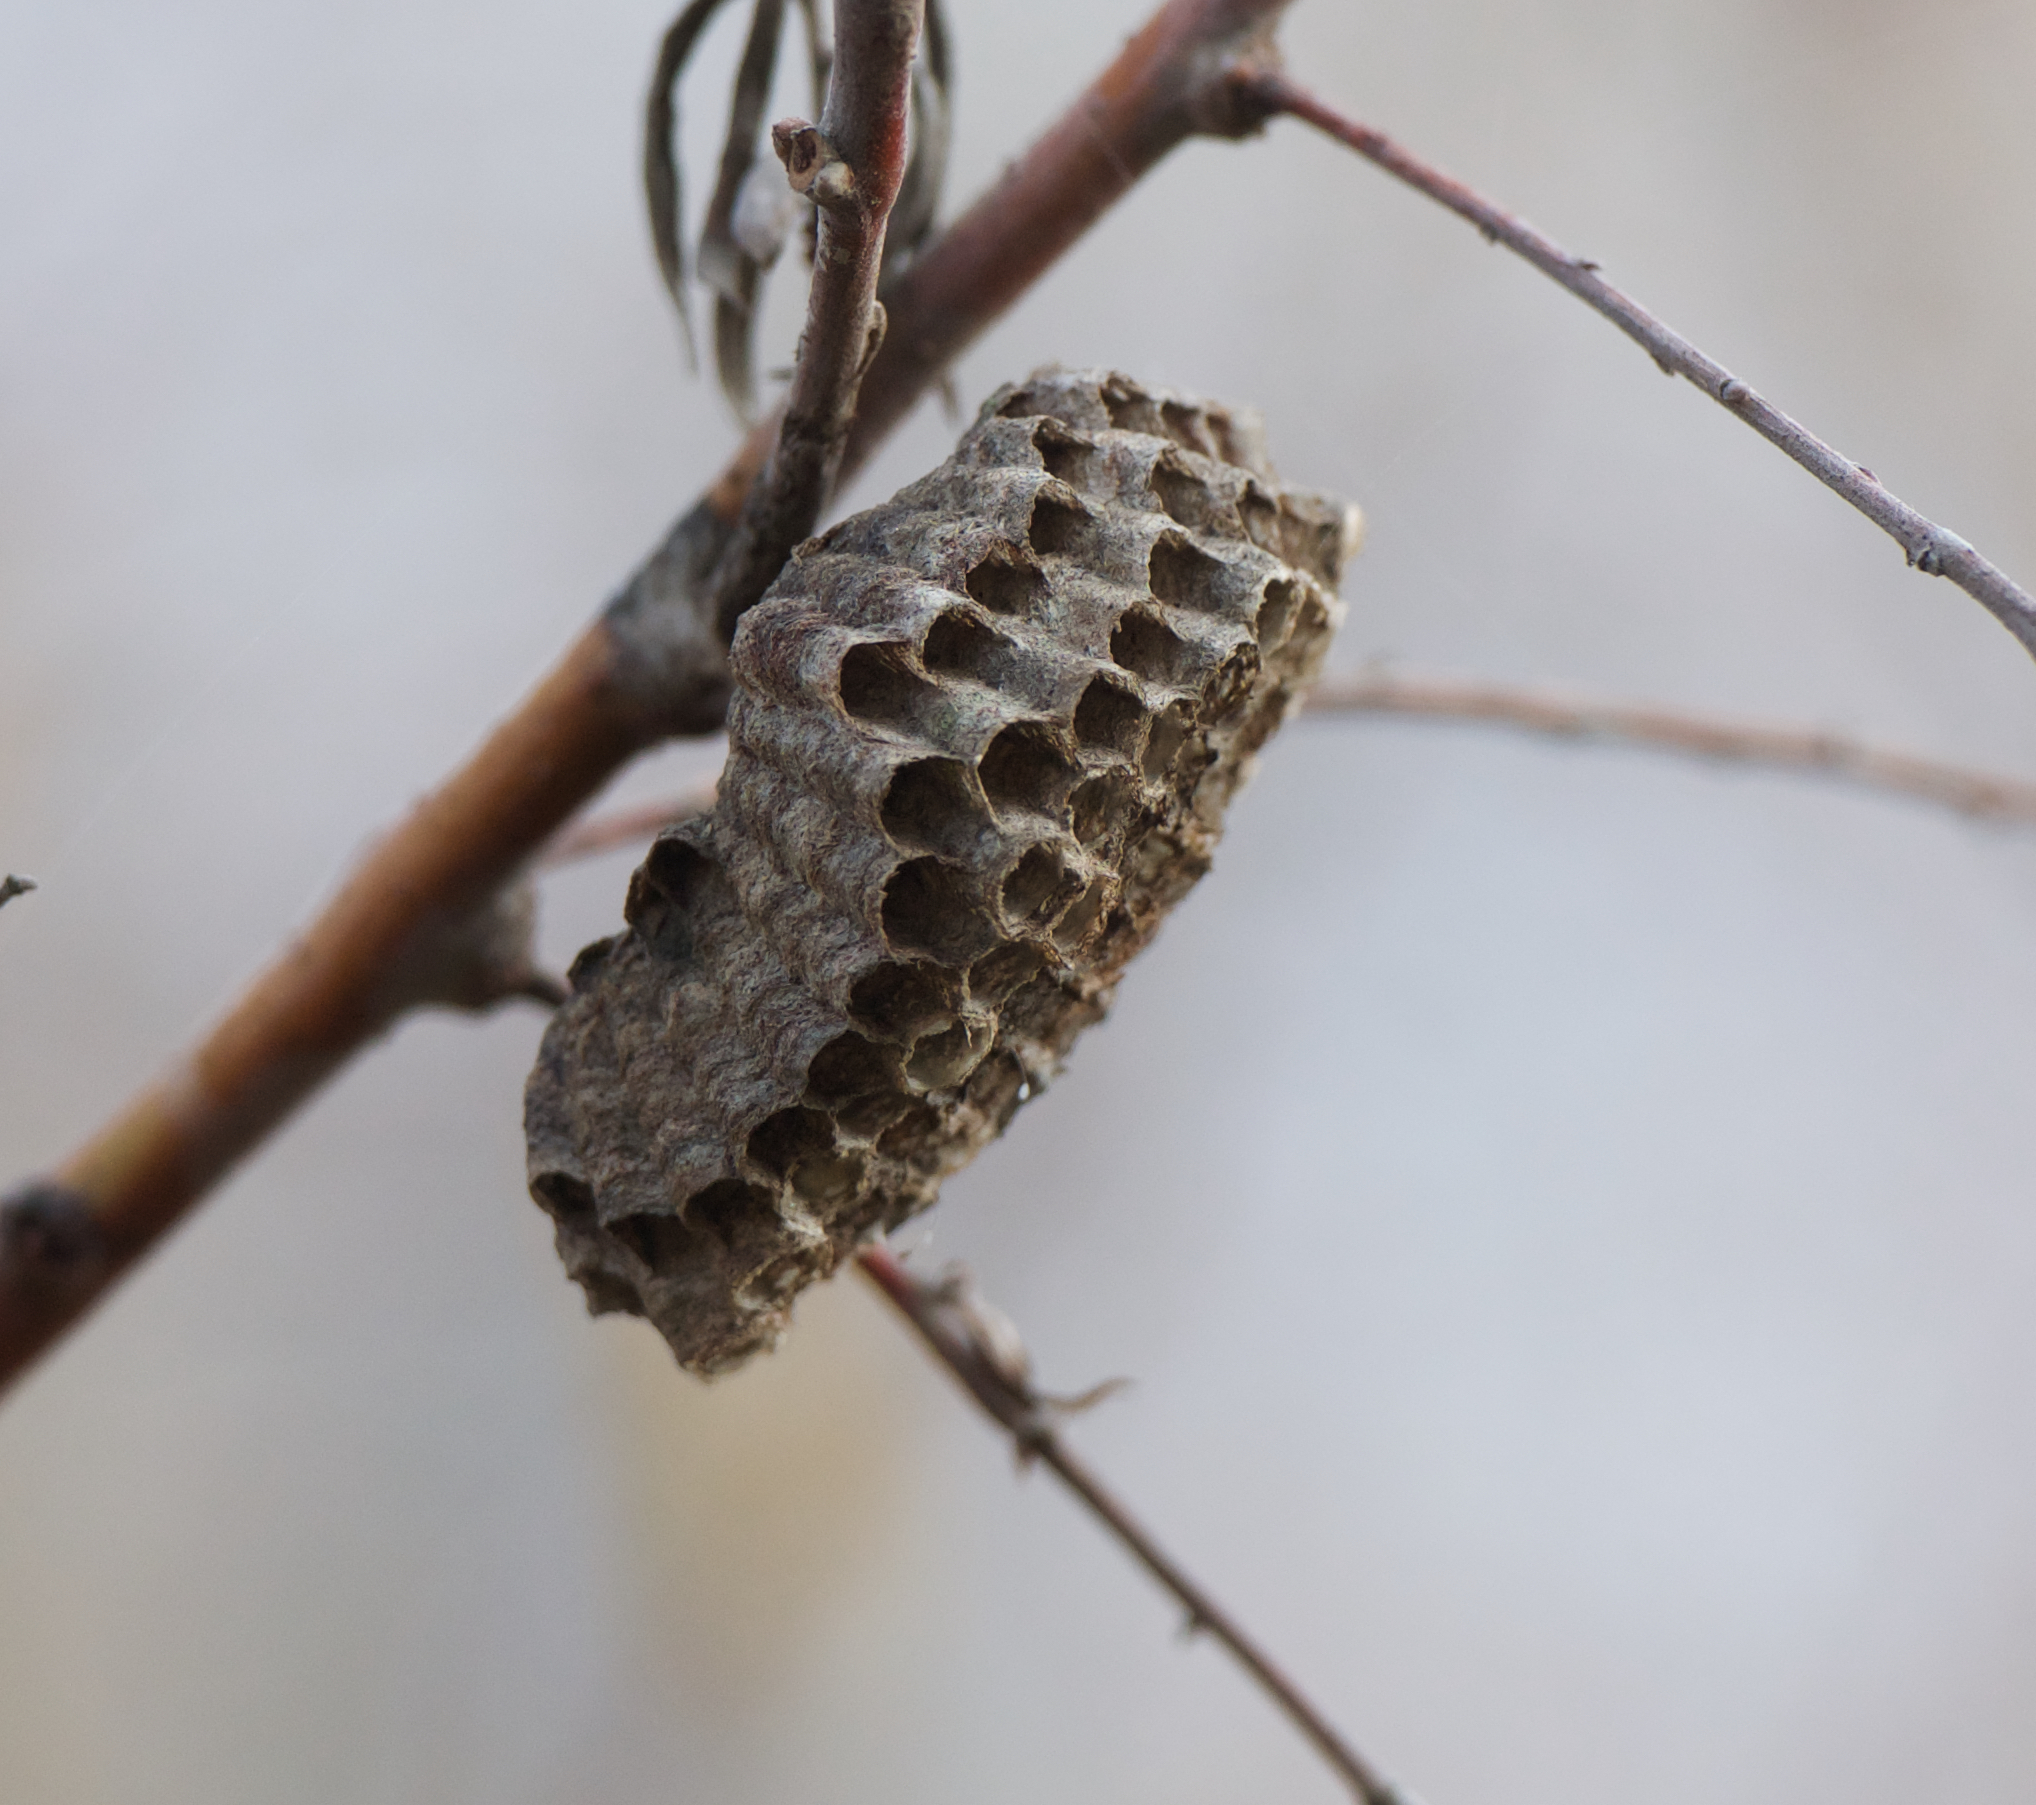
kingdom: Animalia
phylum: Arthropoda
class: Insecta
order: Hymenoptera
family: Vespidae
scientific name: Vespidae
